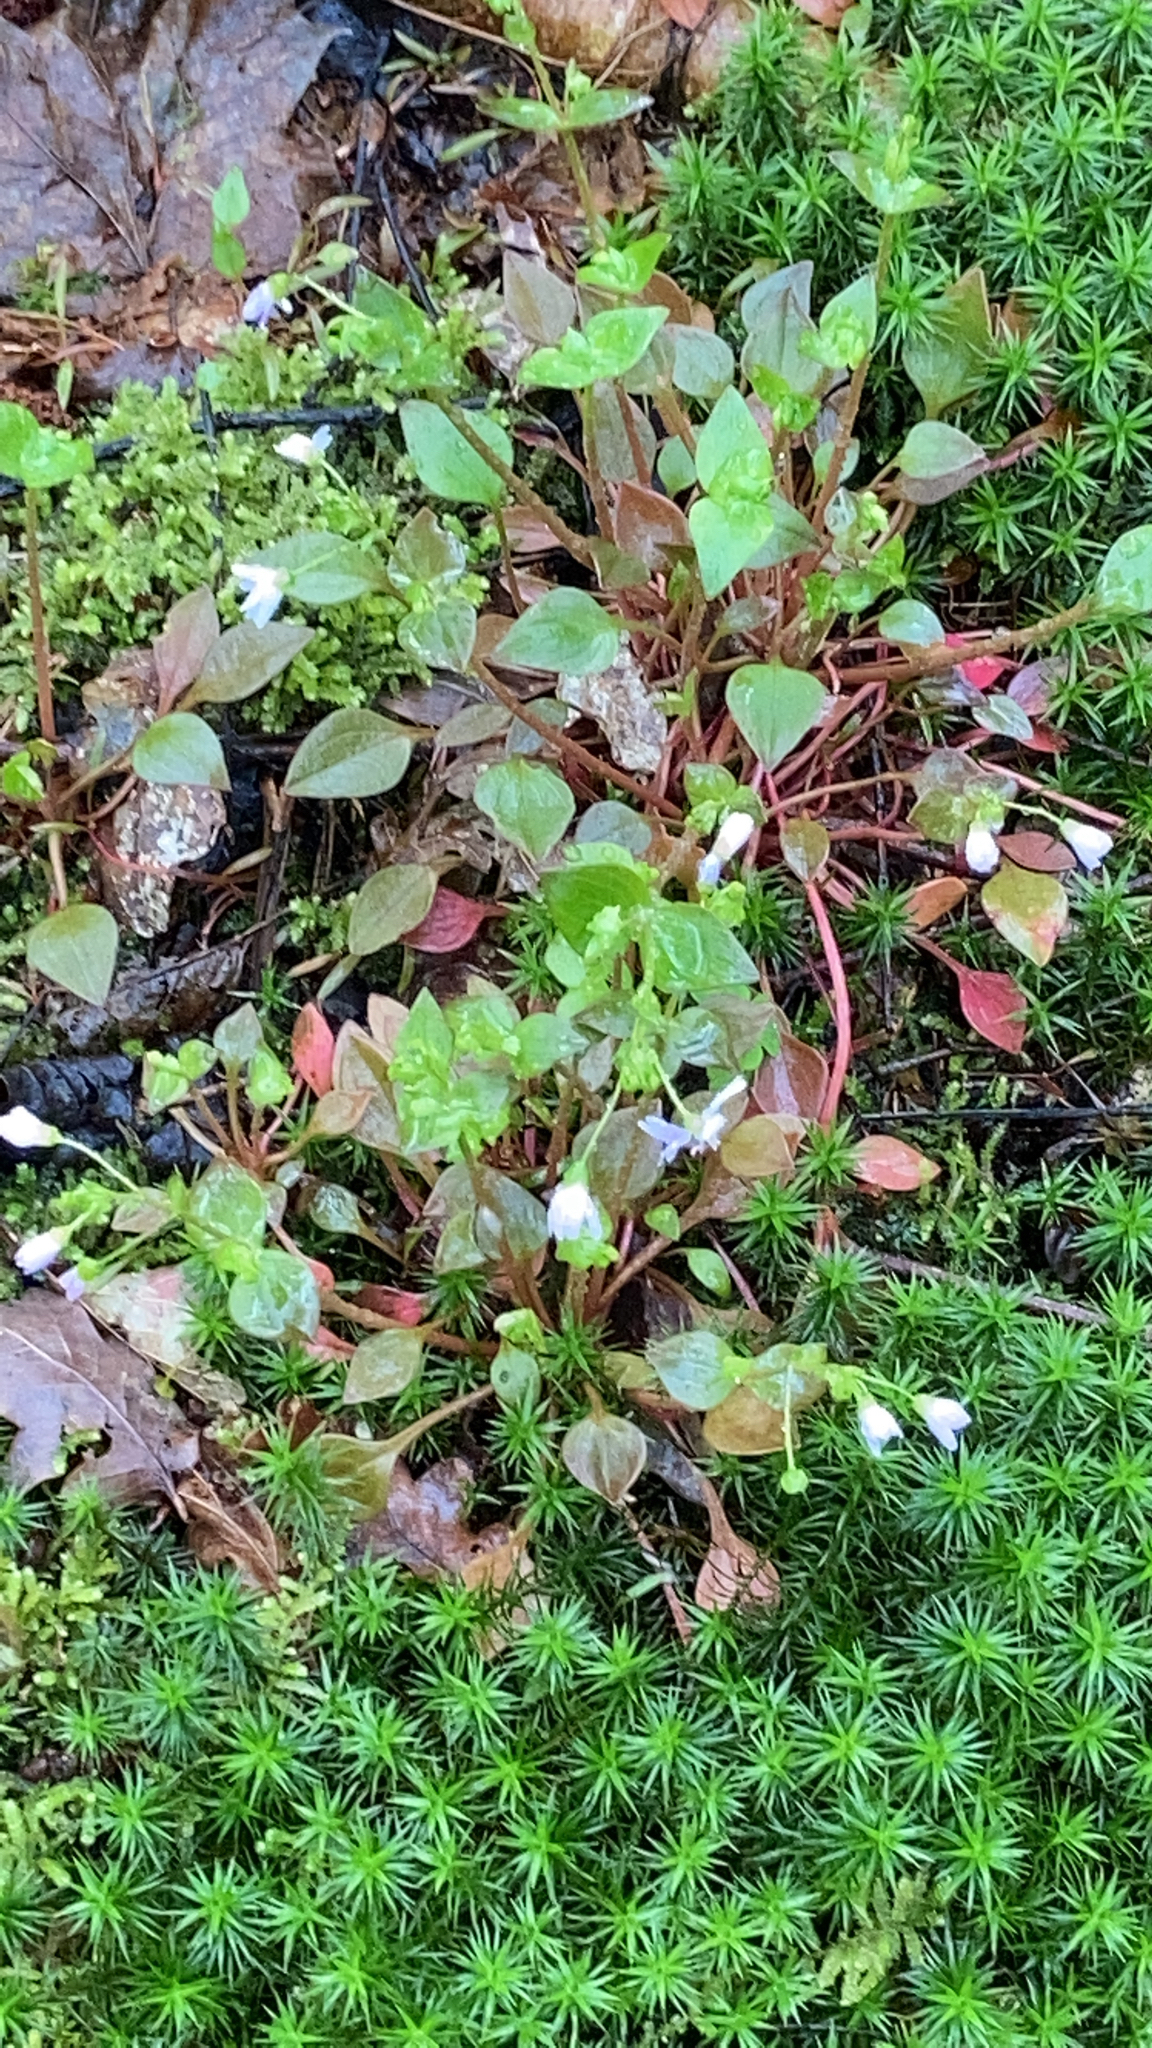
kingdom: Plantae
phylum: Tracheophyta
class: Magnoliopsida
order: Caryophyllales
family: Montiaceae
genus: Claytonia
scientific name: Claytonia sibirica
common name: Pink purslane
